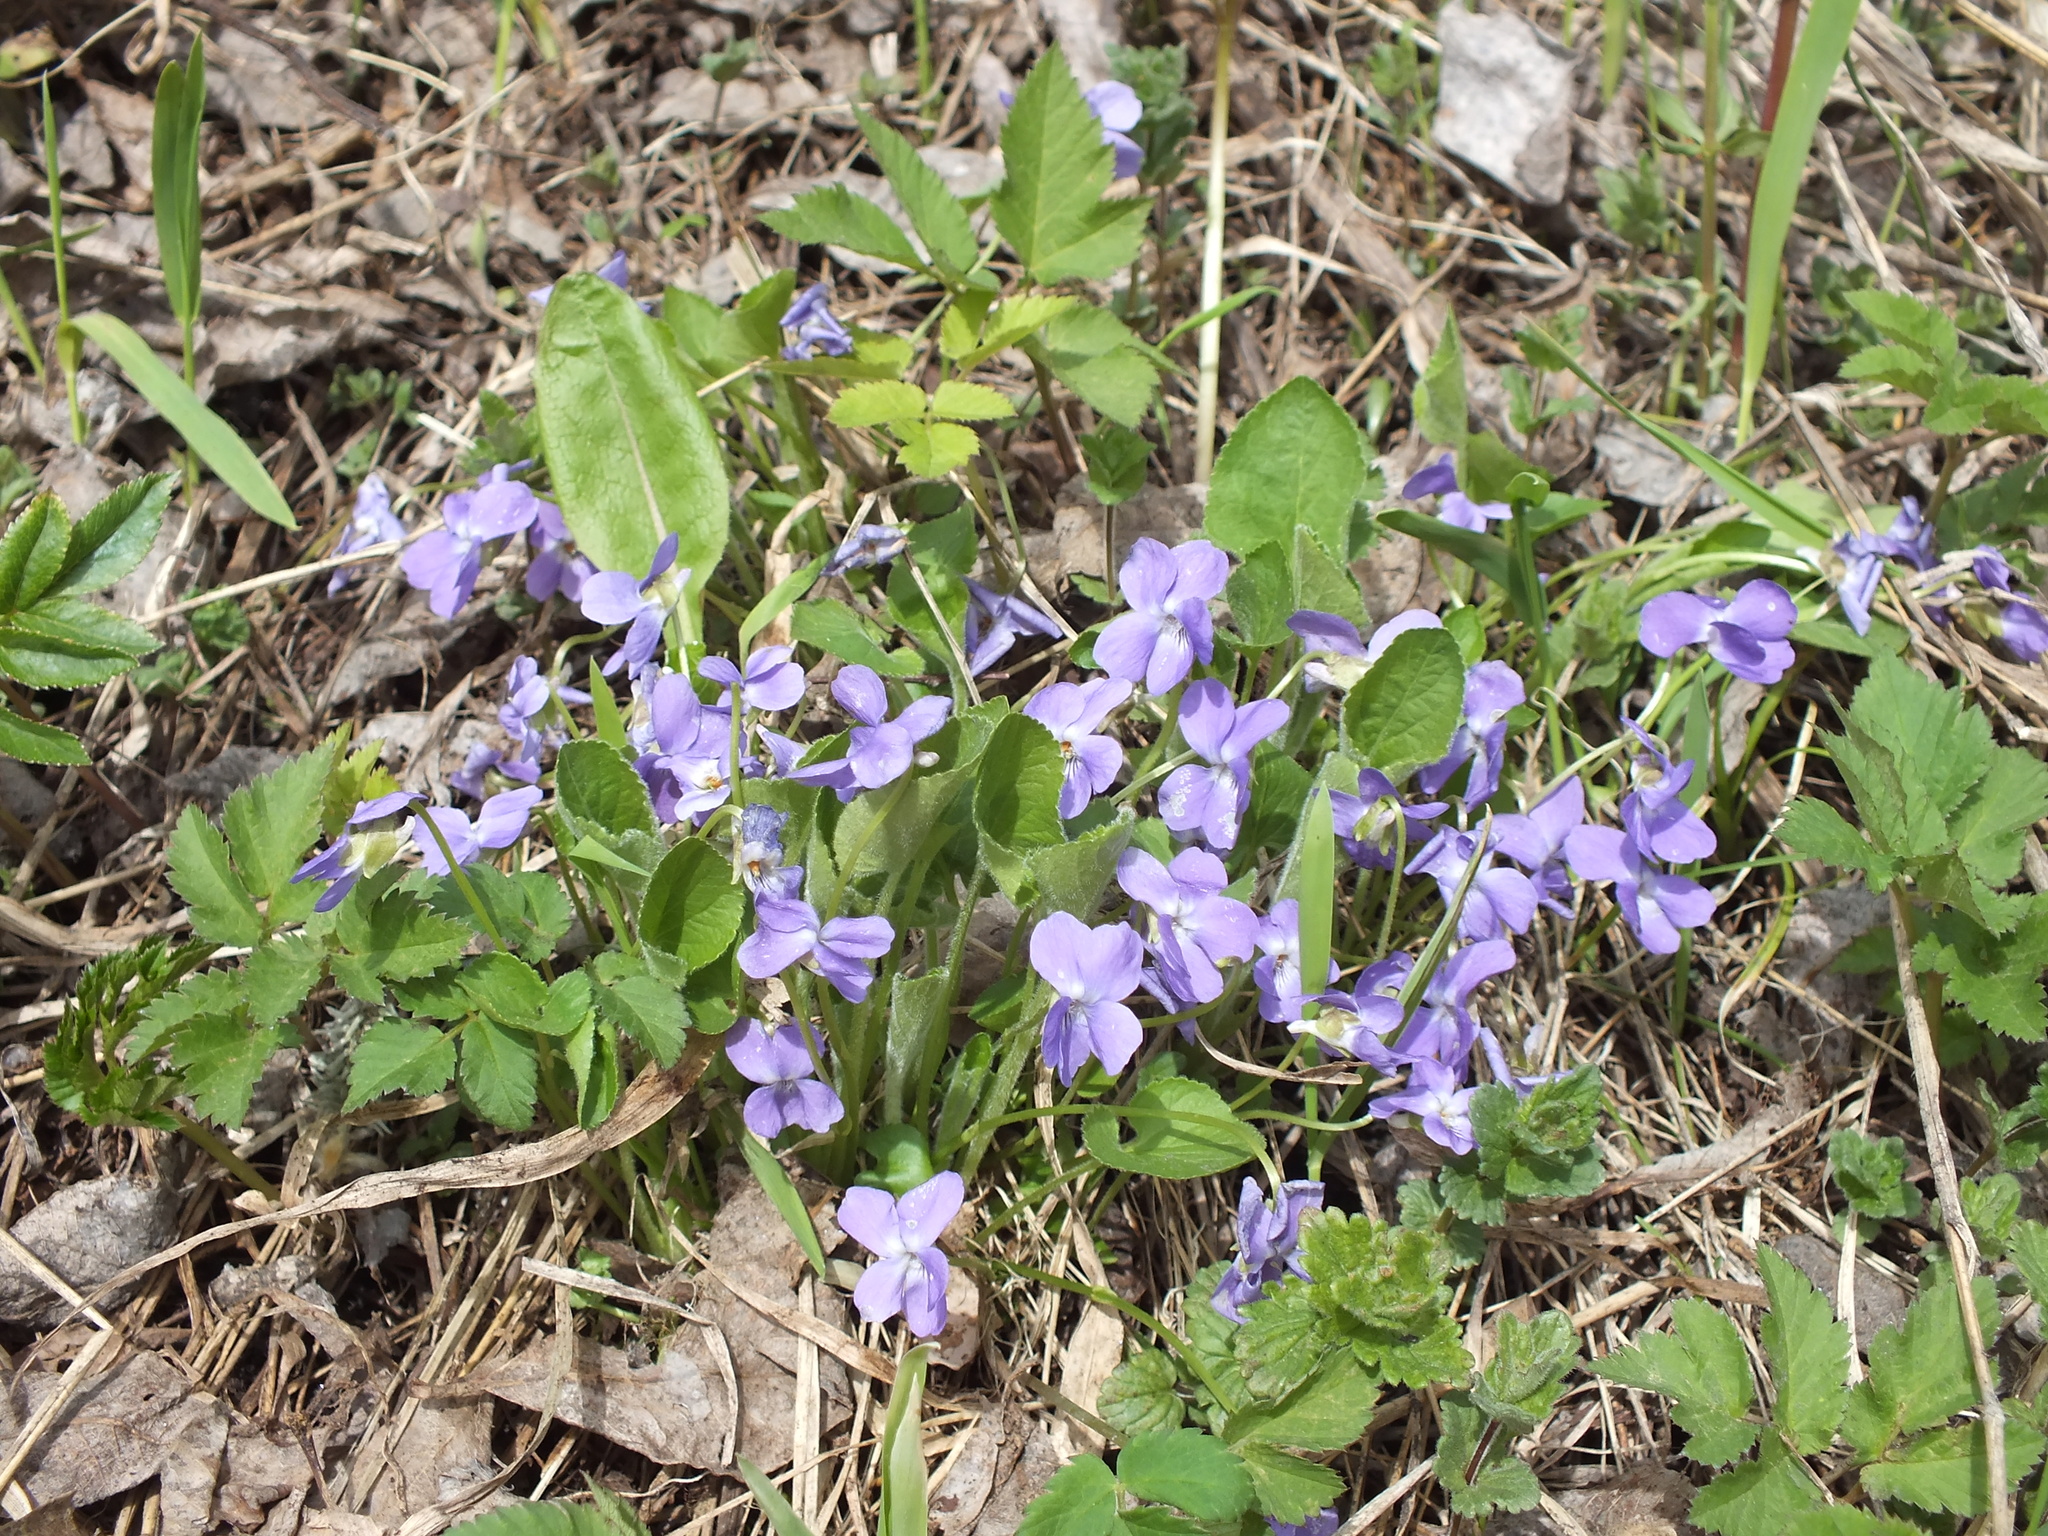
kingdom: Plantae
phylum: Tracheophyta
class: Magnoliopsida
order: Malpighiales
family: Violaceae
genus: Viola
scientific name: Viola collina
